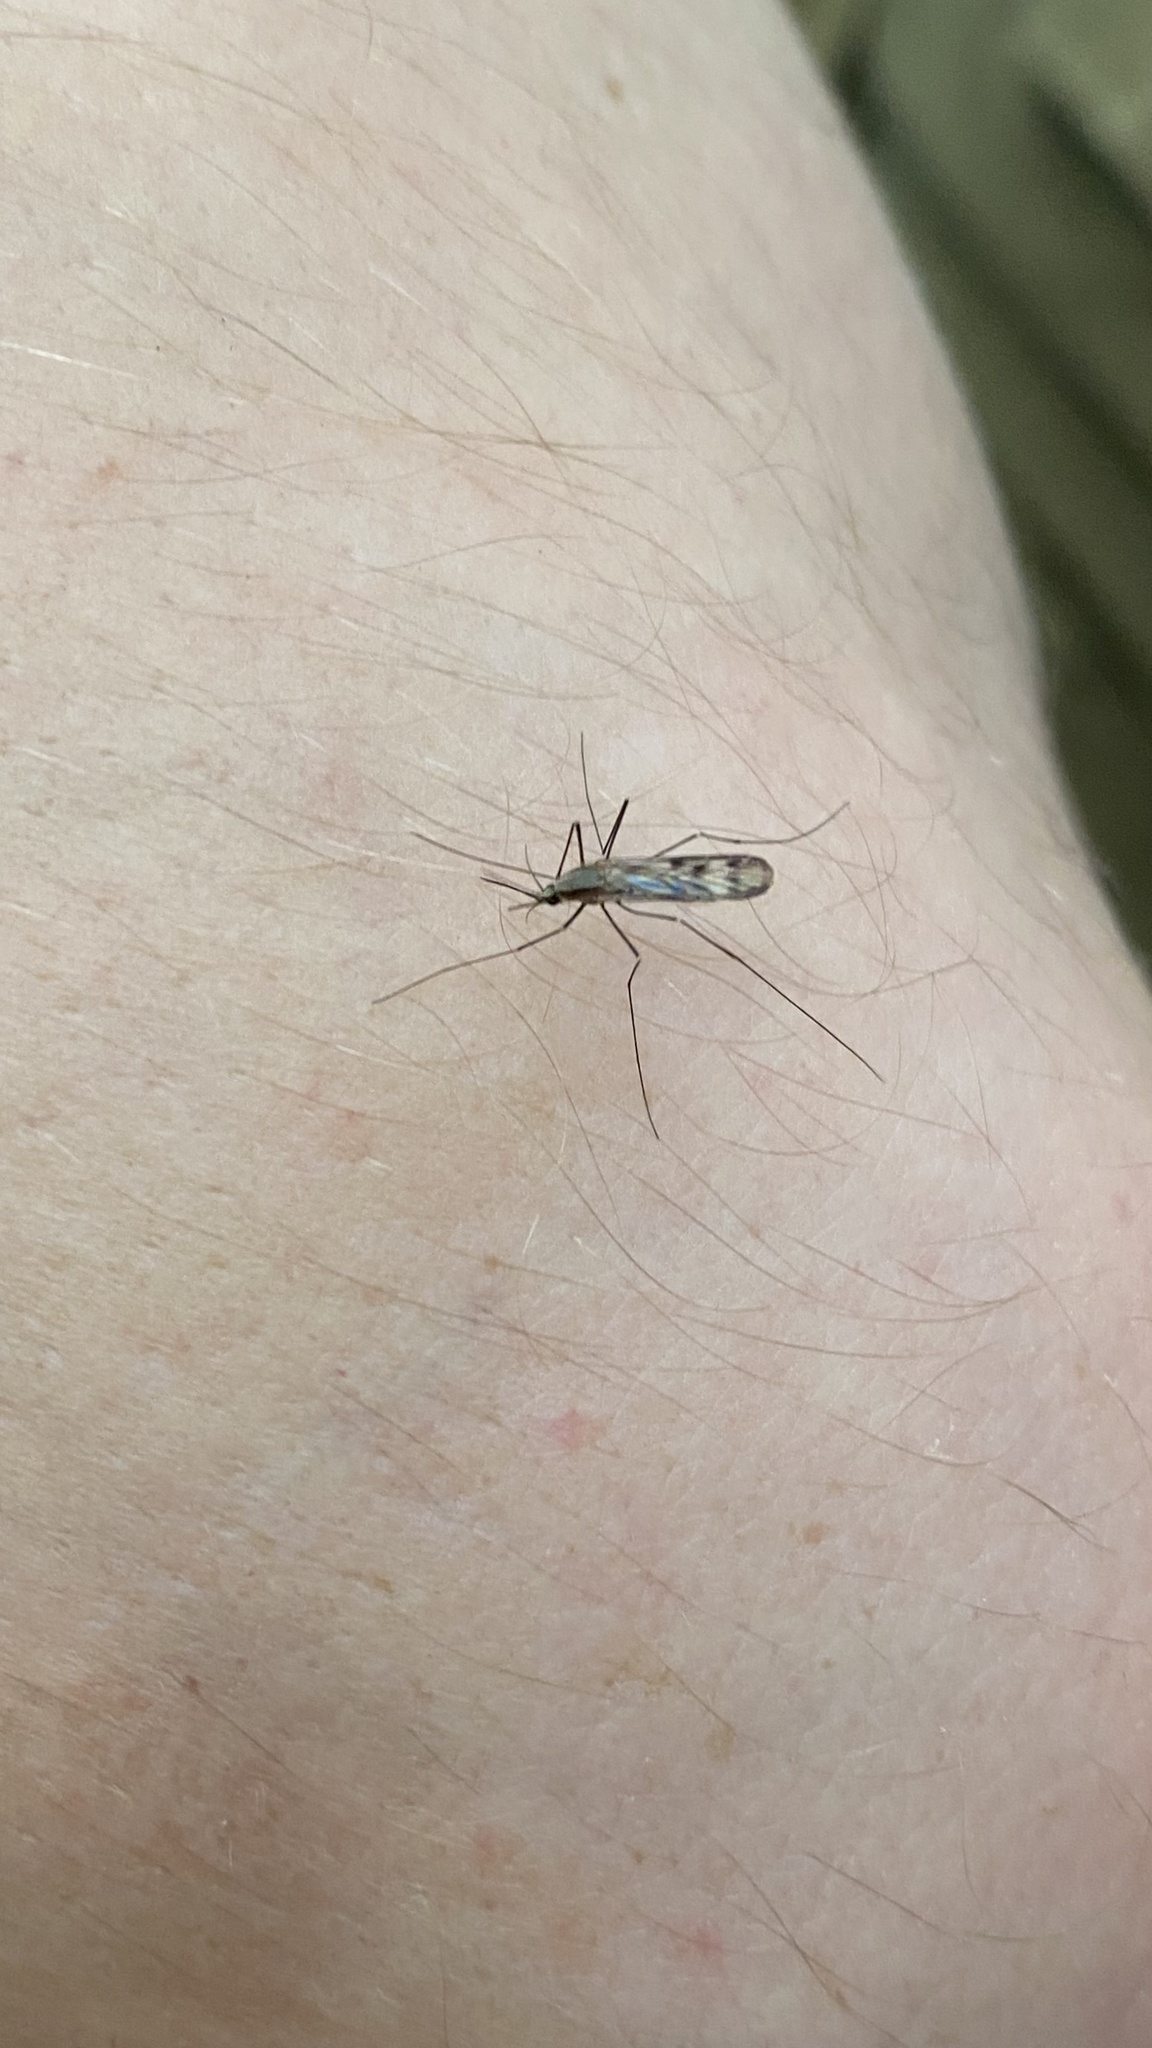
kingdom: Animalia
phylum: Arthropoda
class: Insecta
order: Diptera
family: Culicidae
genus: Anopheles
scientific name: Anopheles
